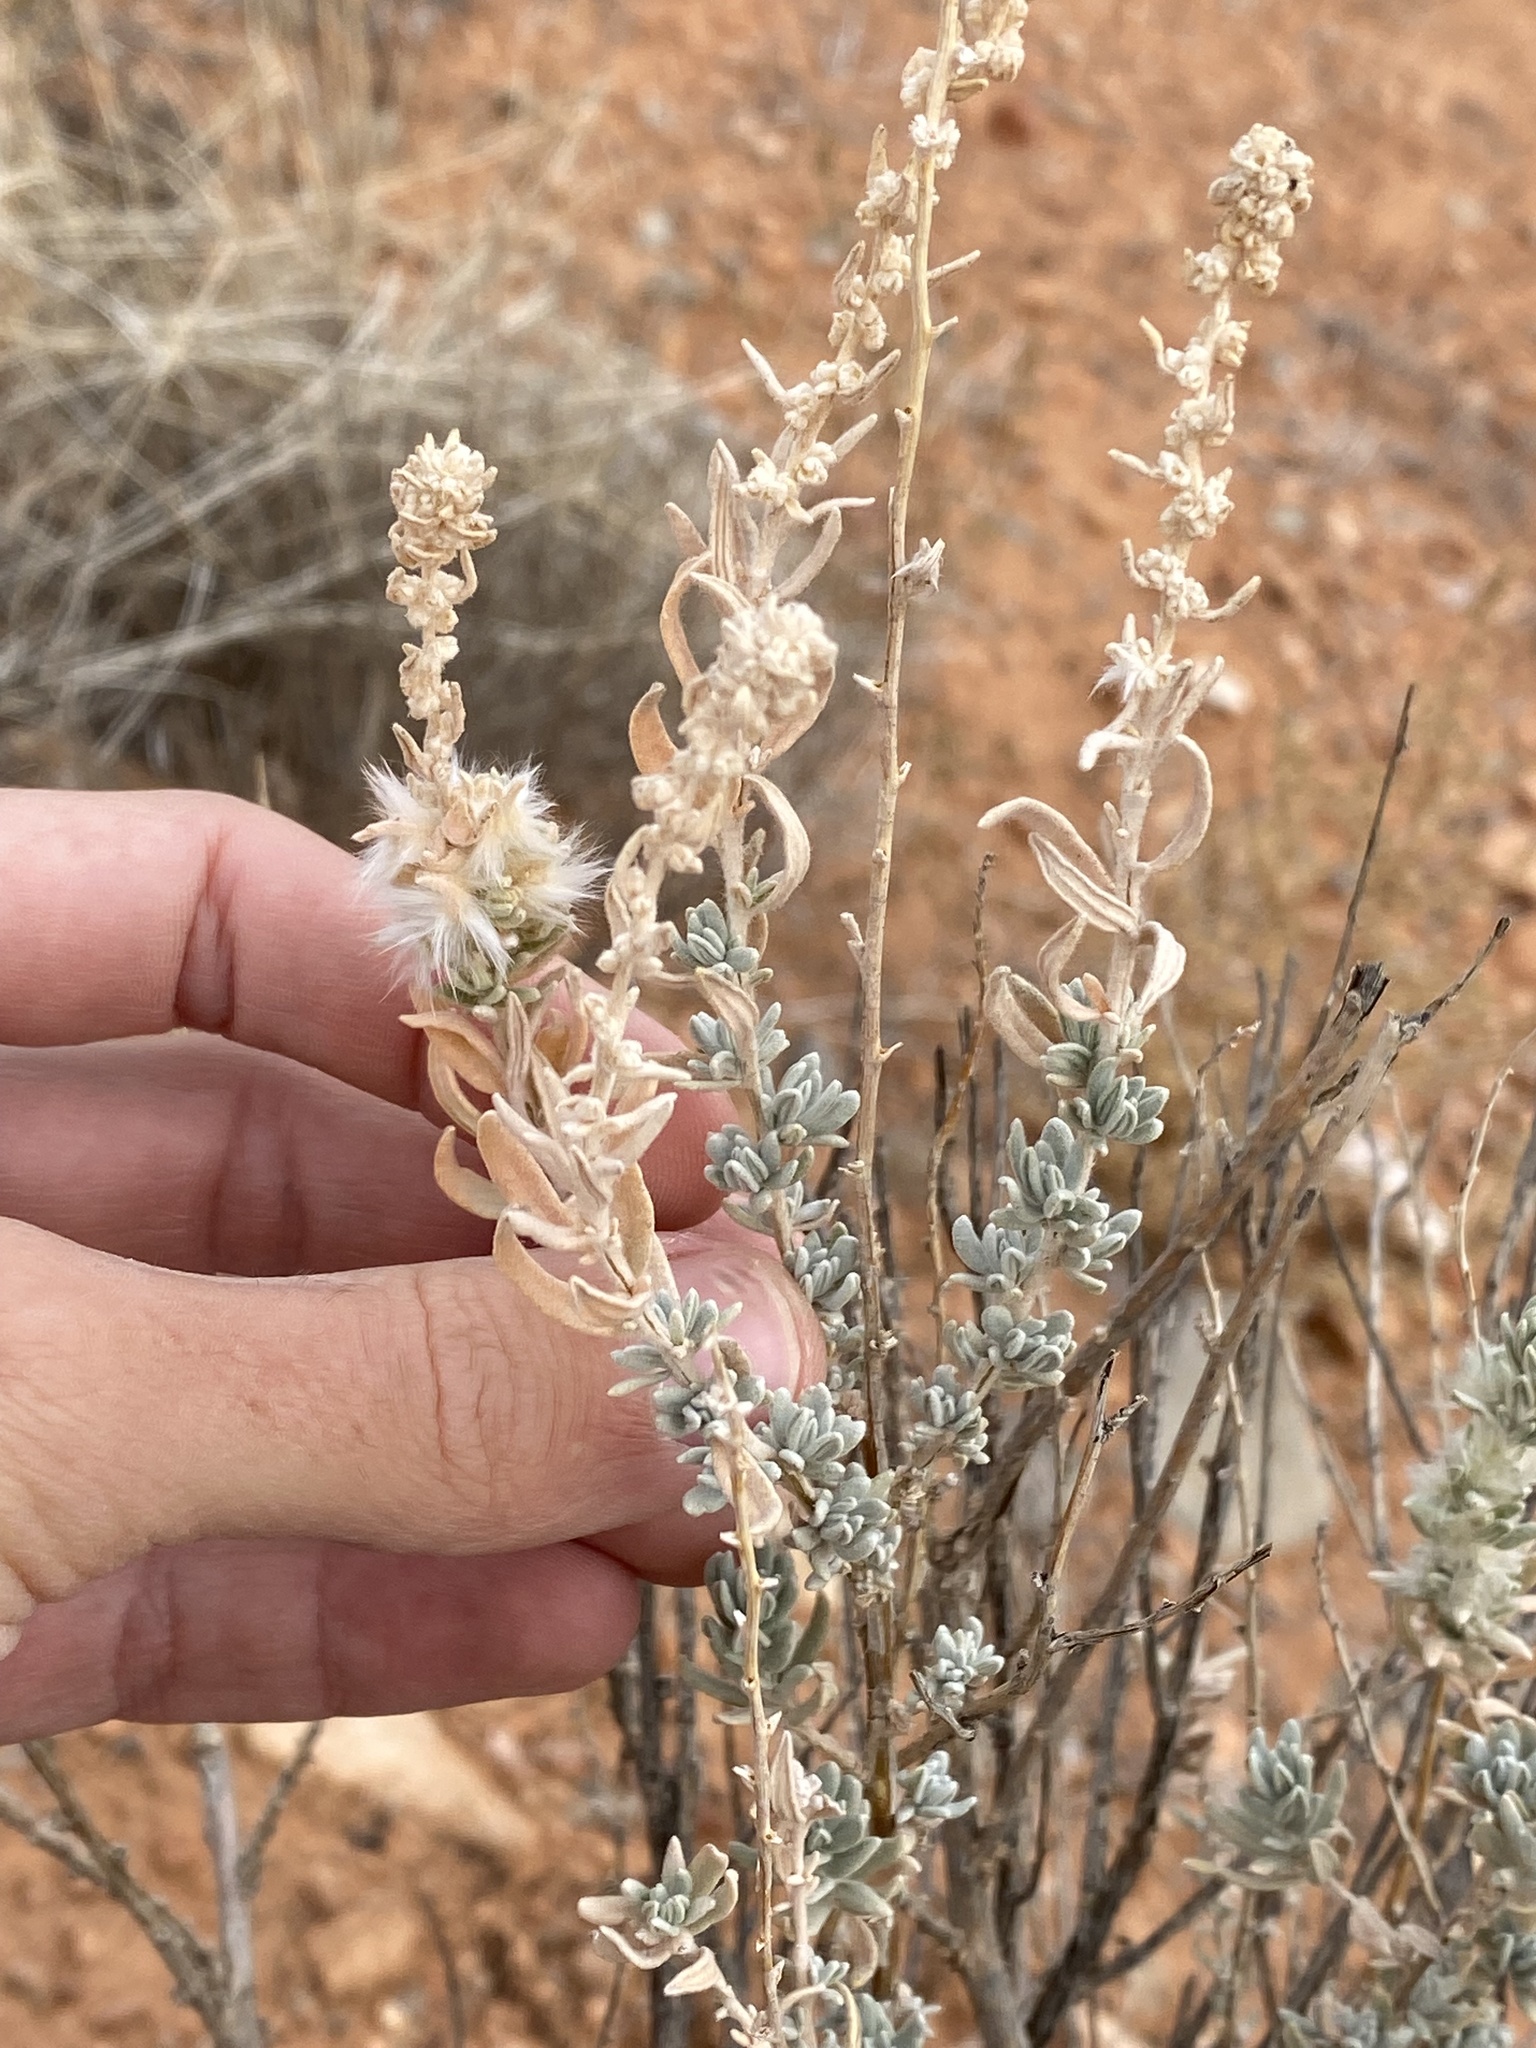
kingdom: Plantae
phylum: Tracheophyta
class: Magnoliopsida
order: Caryophyllales
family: Amaranthaceae
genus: Krascheninnikovia
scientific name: Krascheninnikovia lanata
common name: Winterfat
